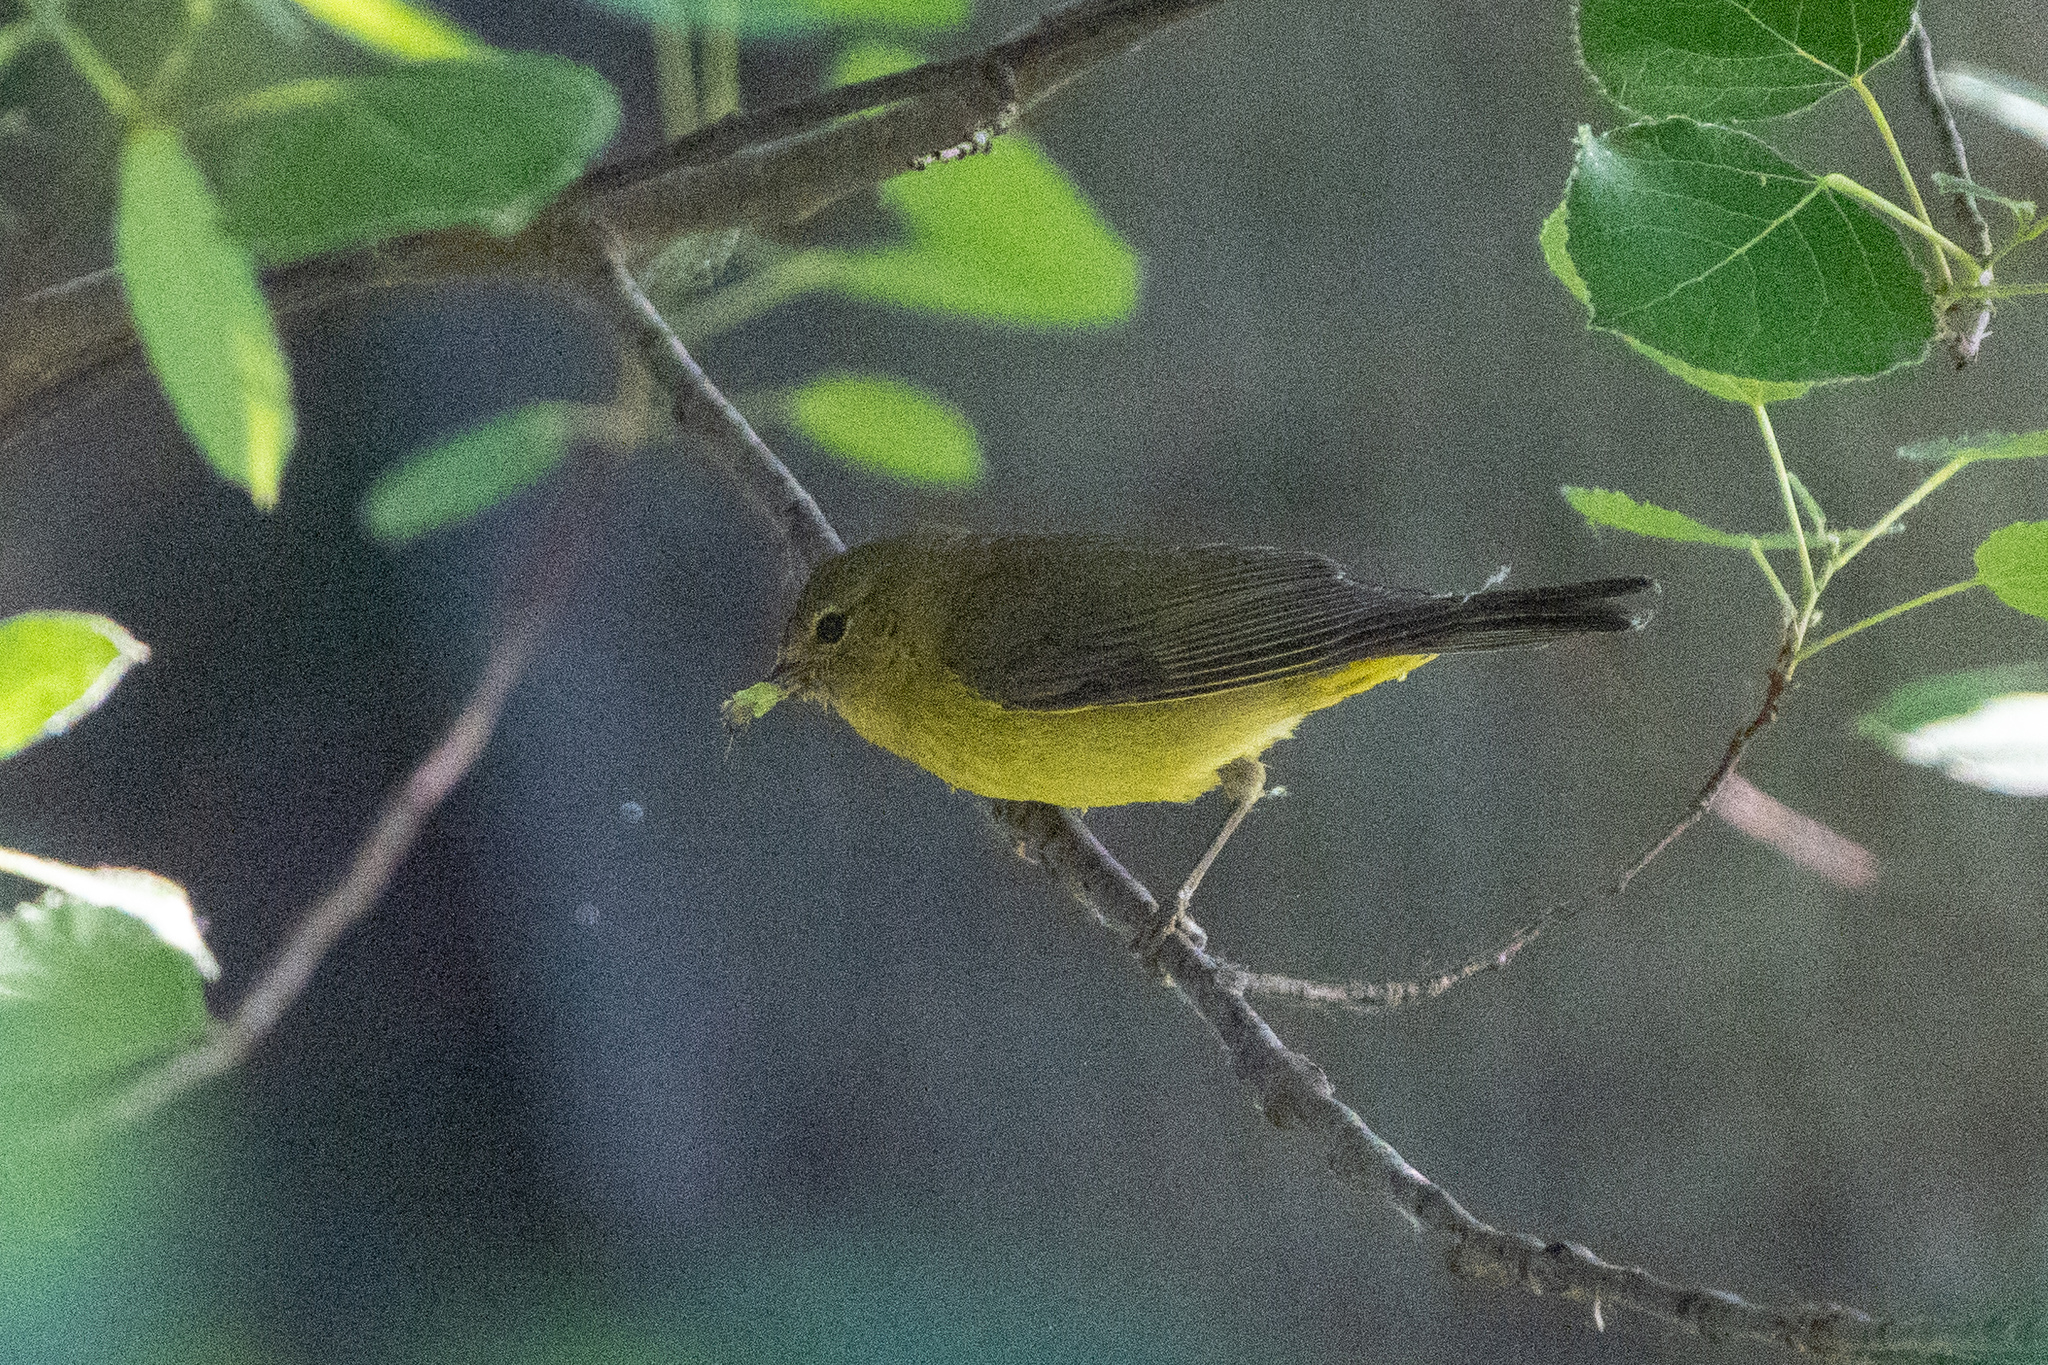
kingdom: Animalia
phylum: Chordata
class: Aves
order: Passeriformes
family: Parulidae
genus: Leiothlypis
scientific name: Leiothlypis celata
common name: Orange-crowned warbler
